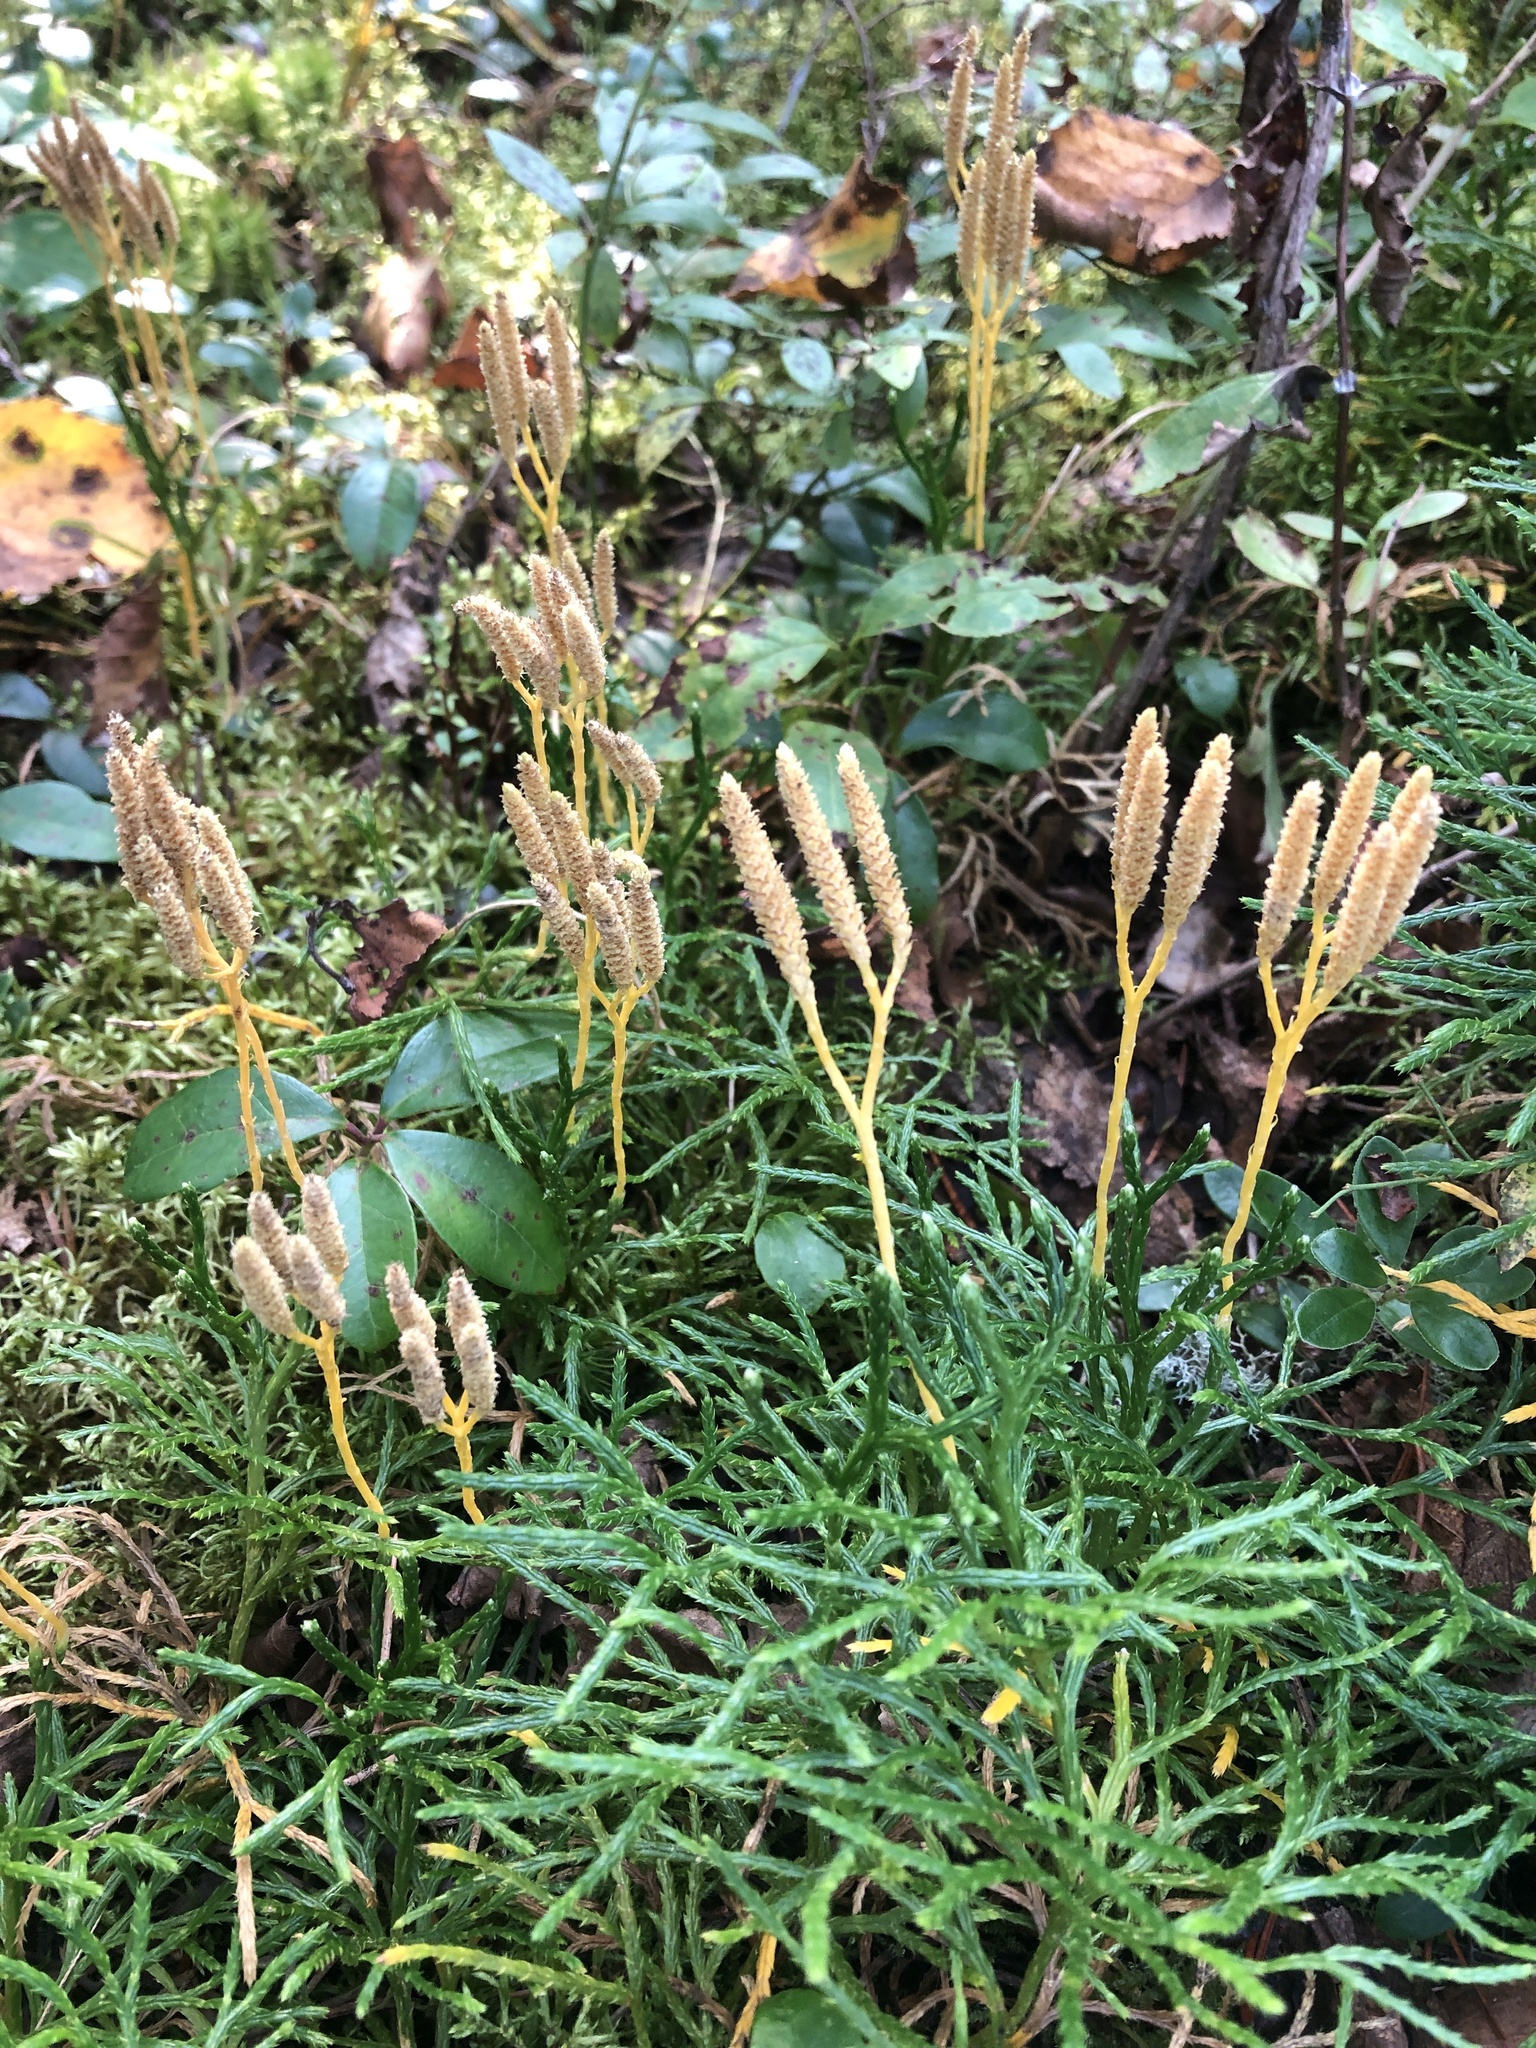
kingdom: Plantae
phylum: Tracheophyta
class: Lycopodiopsida
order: Lycopodiales
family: Lycopodiaceae
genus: Diphasiastrum
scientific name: Diphasiastrum complanatum
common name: Northern running-pine
